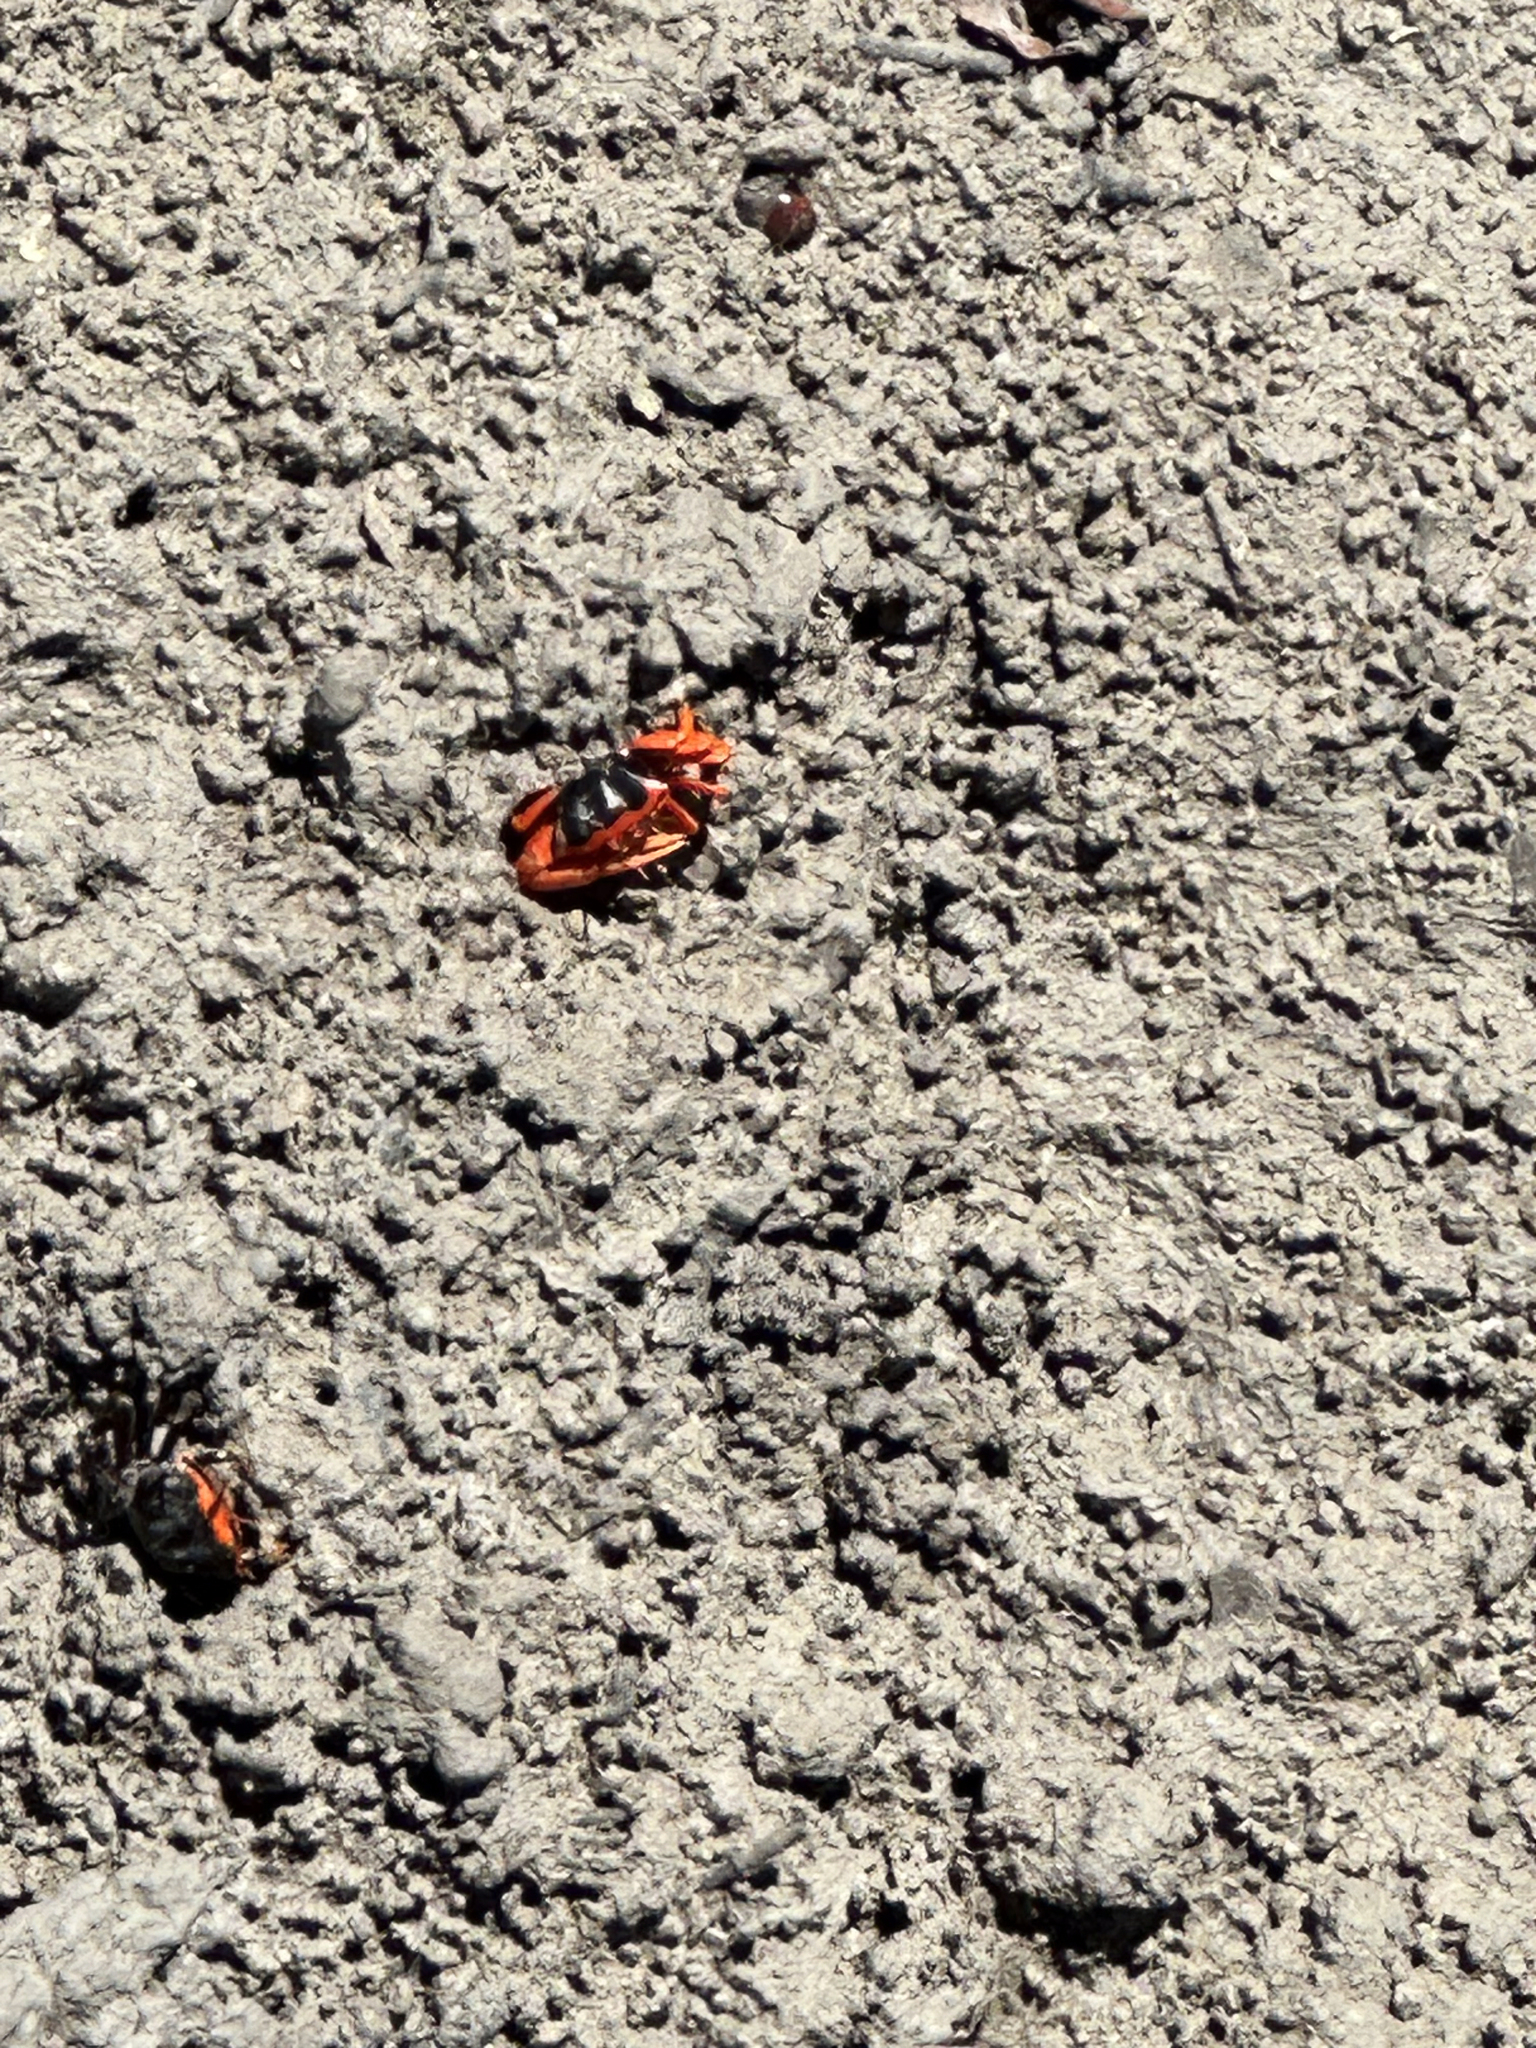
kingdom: Animalia
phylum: Arthropoda
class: Malacostraca
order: Decapoda
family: Ocypodidae
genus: Tubuca
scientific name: Tubuca flammula
